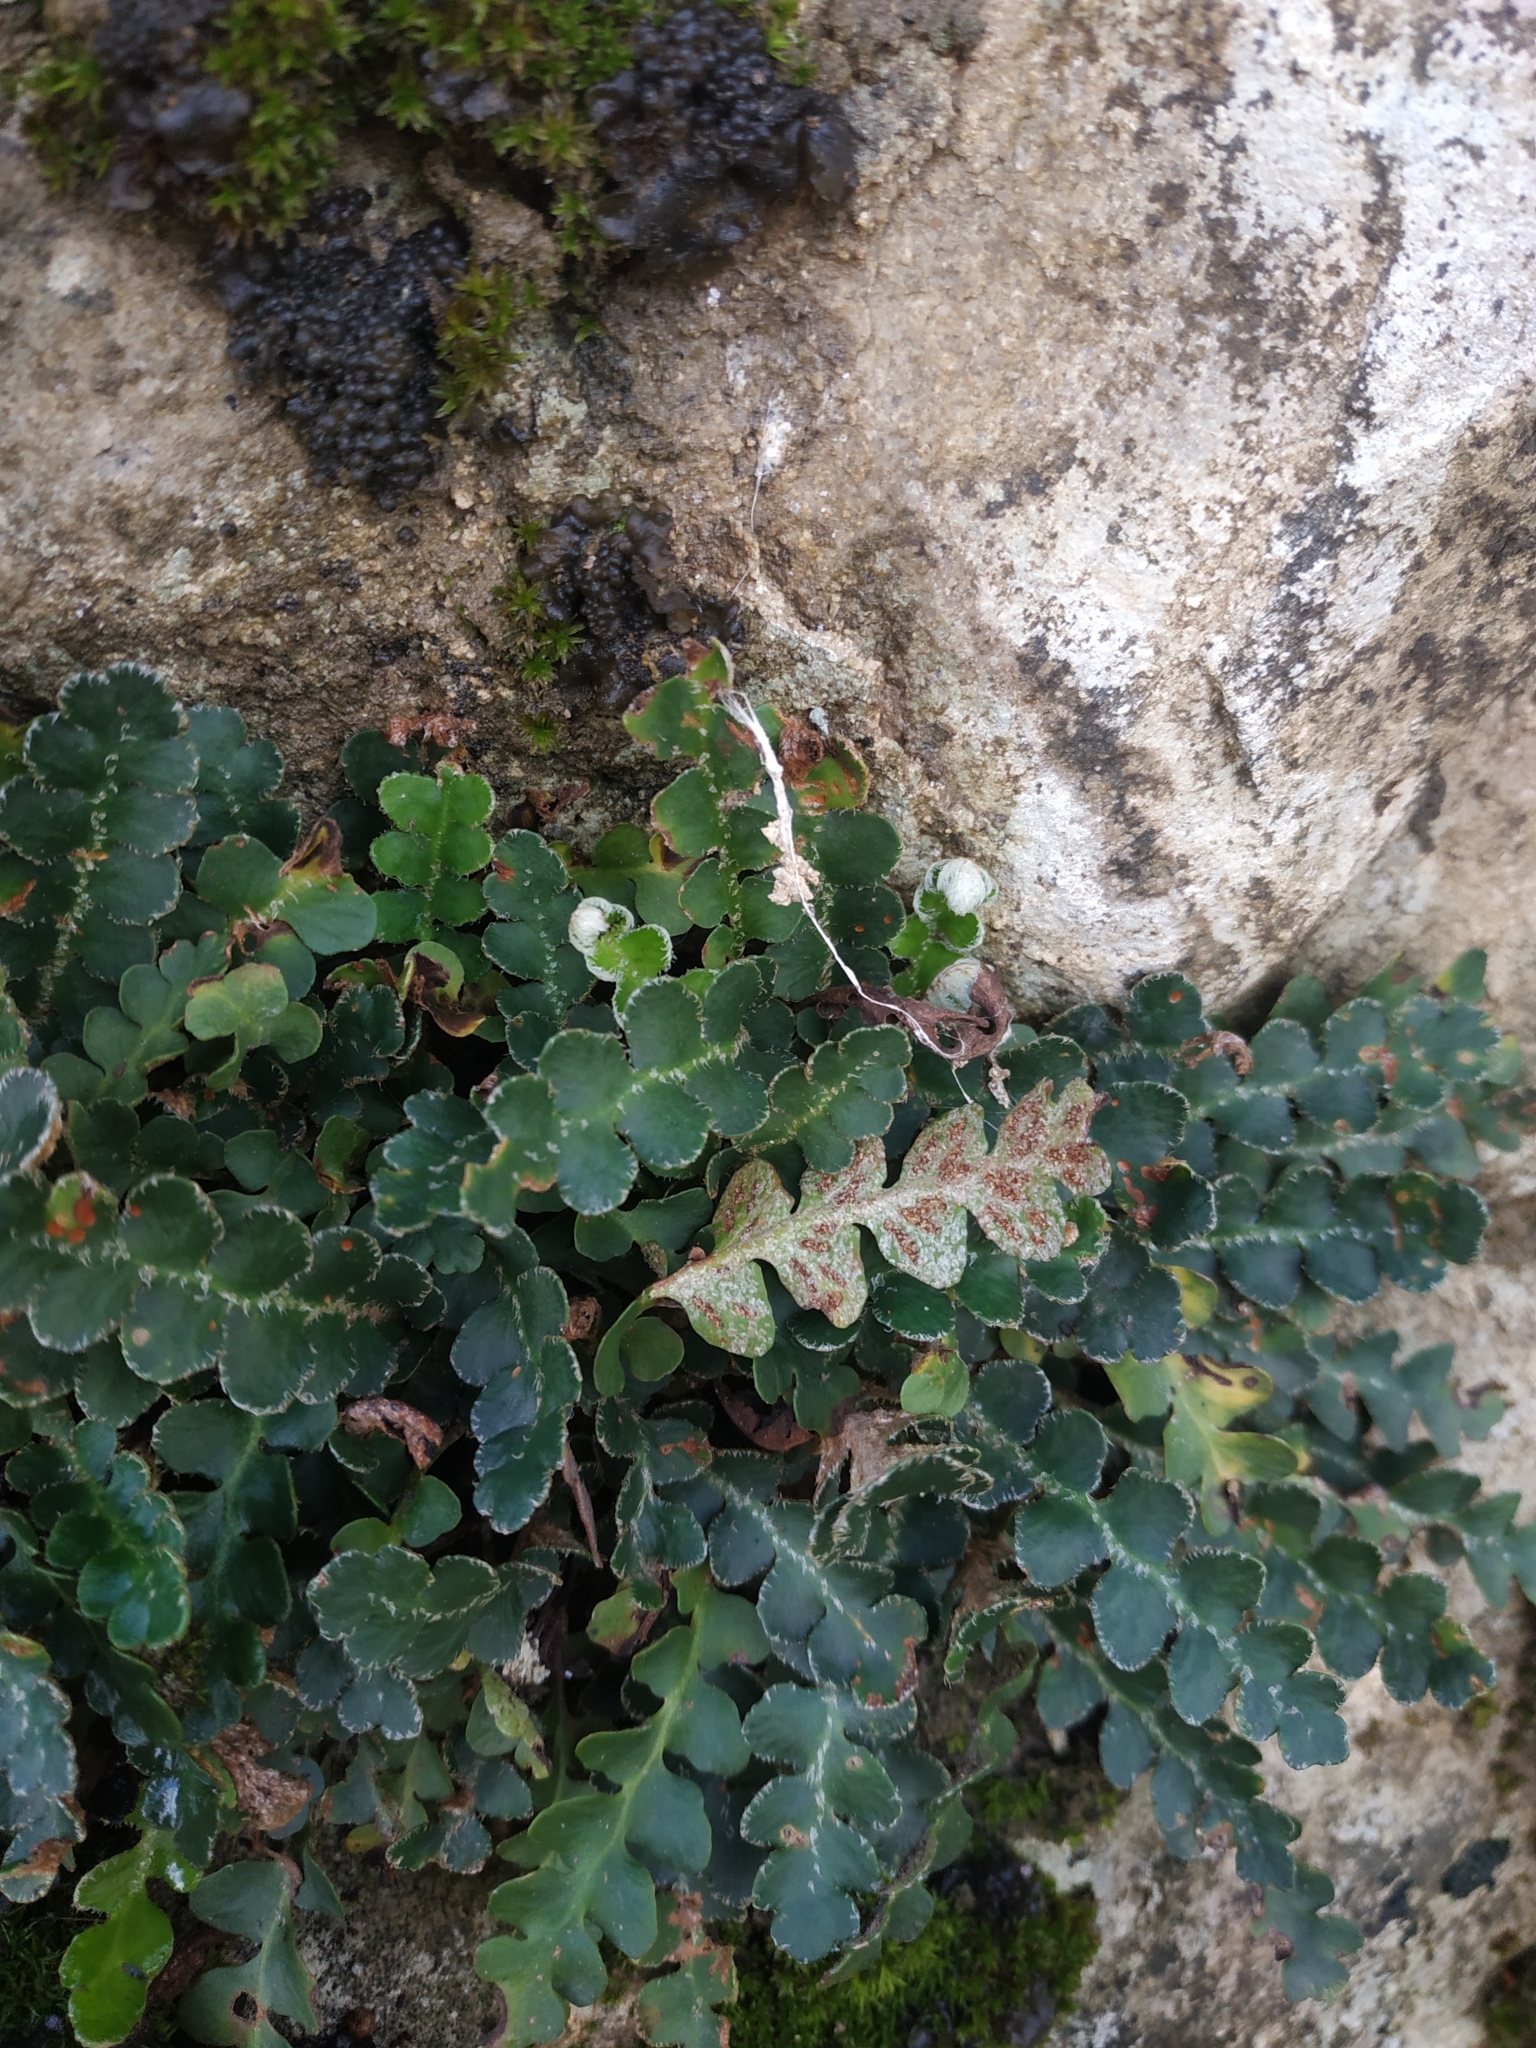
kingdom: Plantae
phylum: Tracheophyta
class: Polypodiopsida
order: Polypodiales
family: Aspleniaceae
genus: Asplenium
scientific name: Asplenium ceterach
